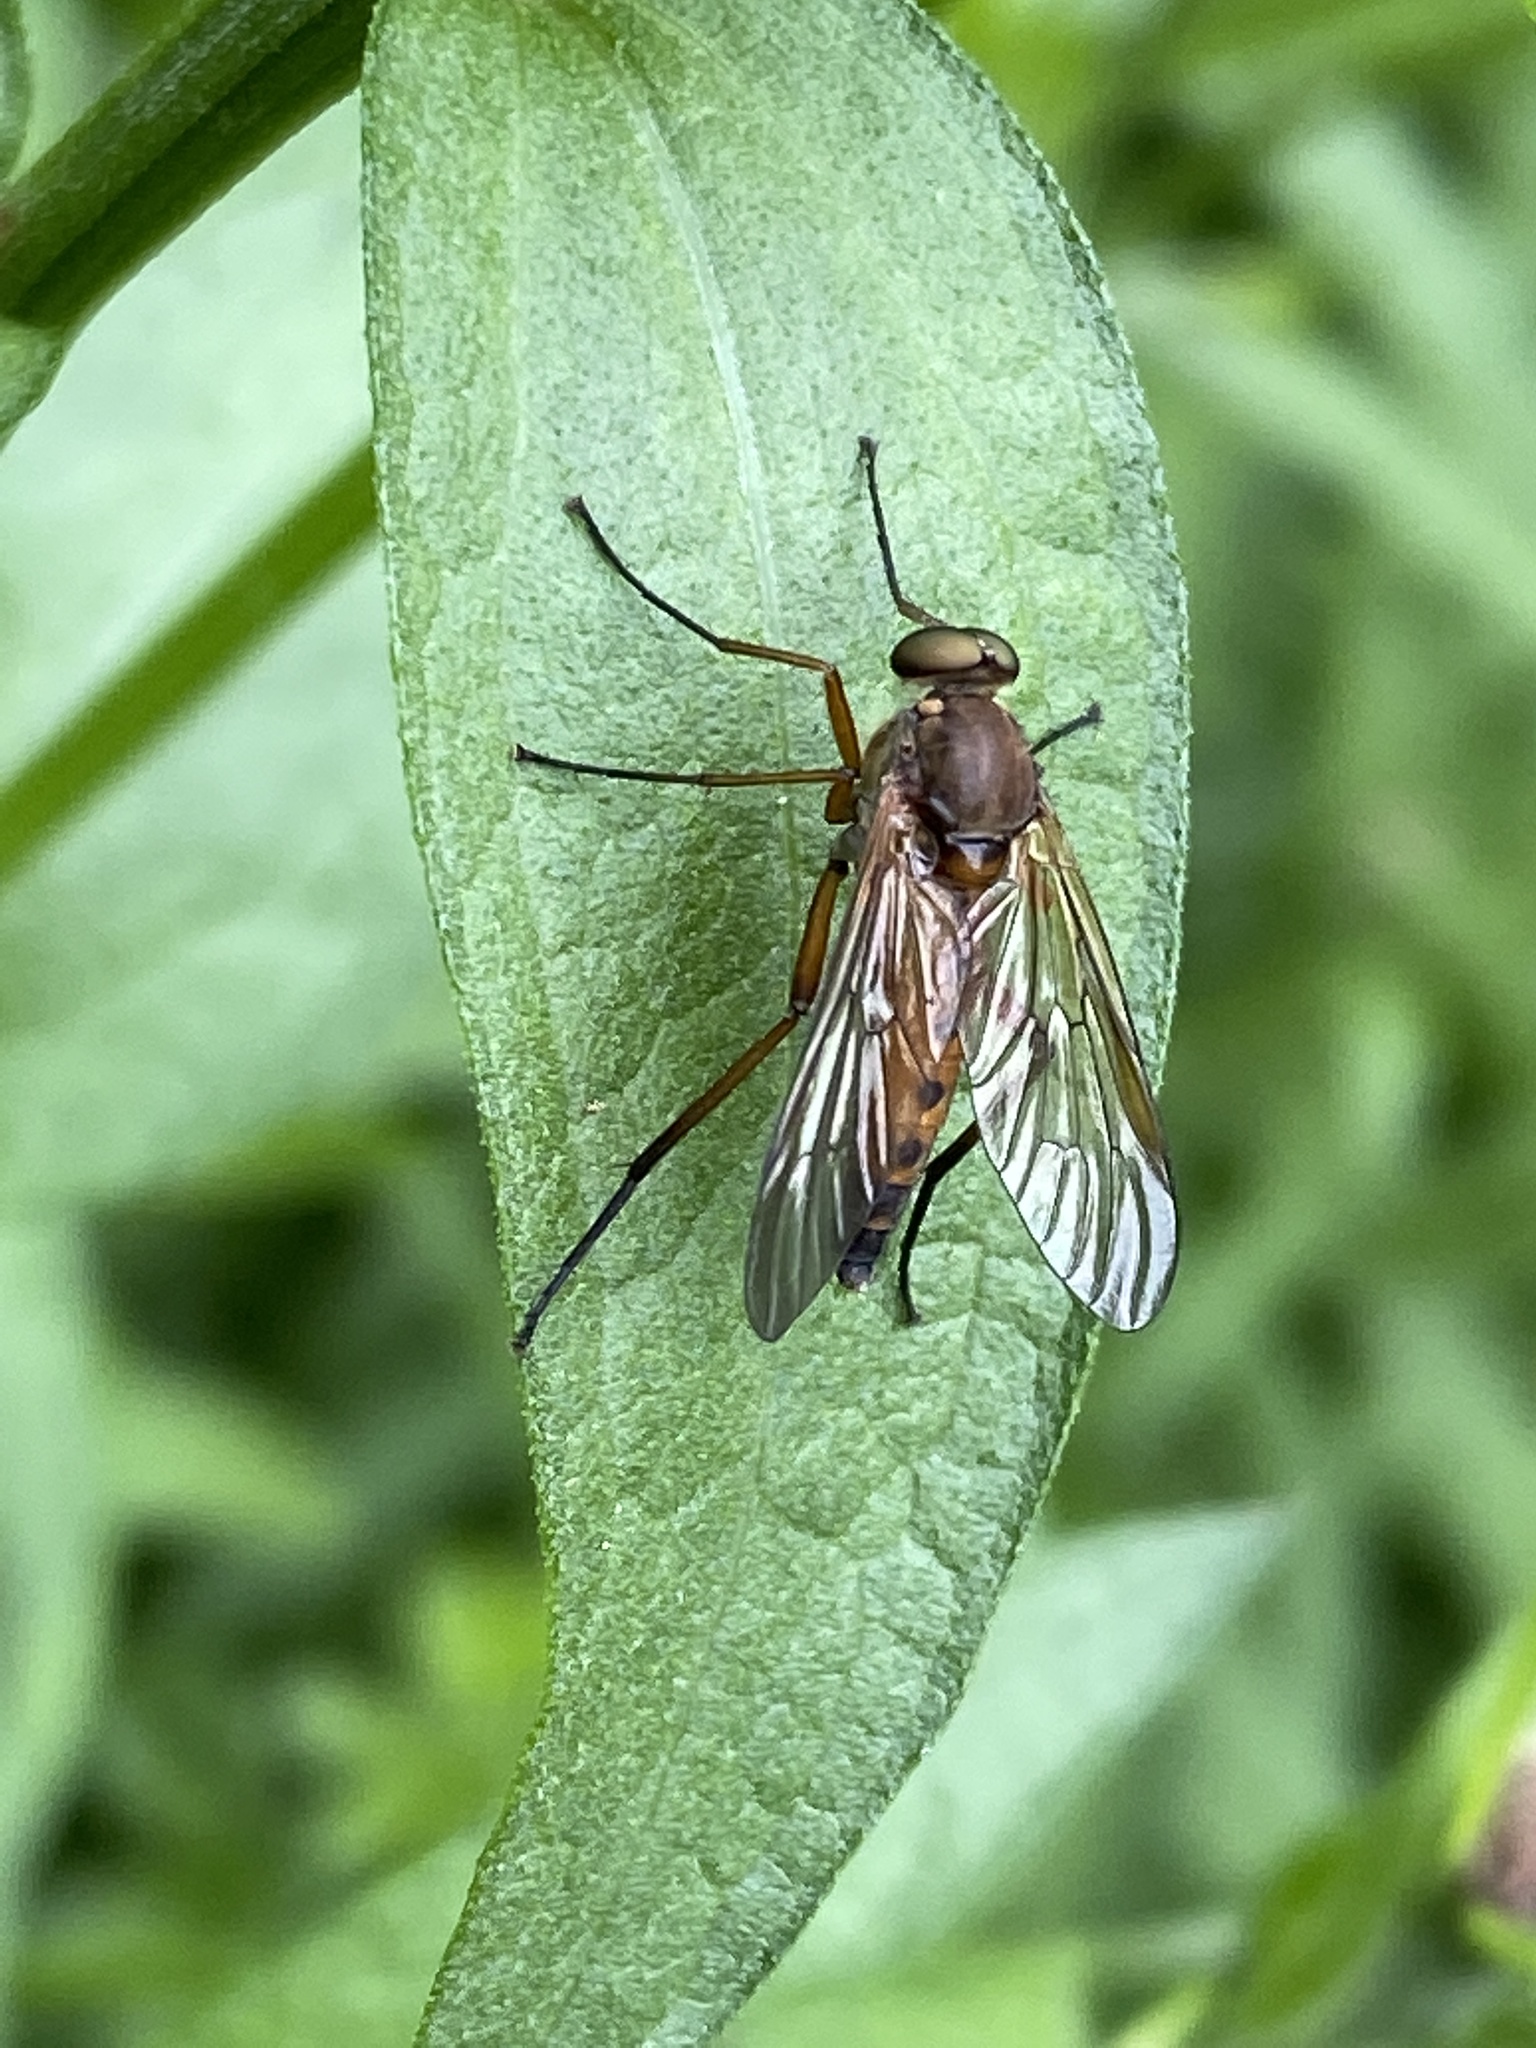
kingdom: Animalia
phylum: Arthropoda
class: Insecta
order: Diptera
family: Rhagionidae
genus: Rhagio
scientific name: Rhagio tringaria
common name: Marsh snipefly
